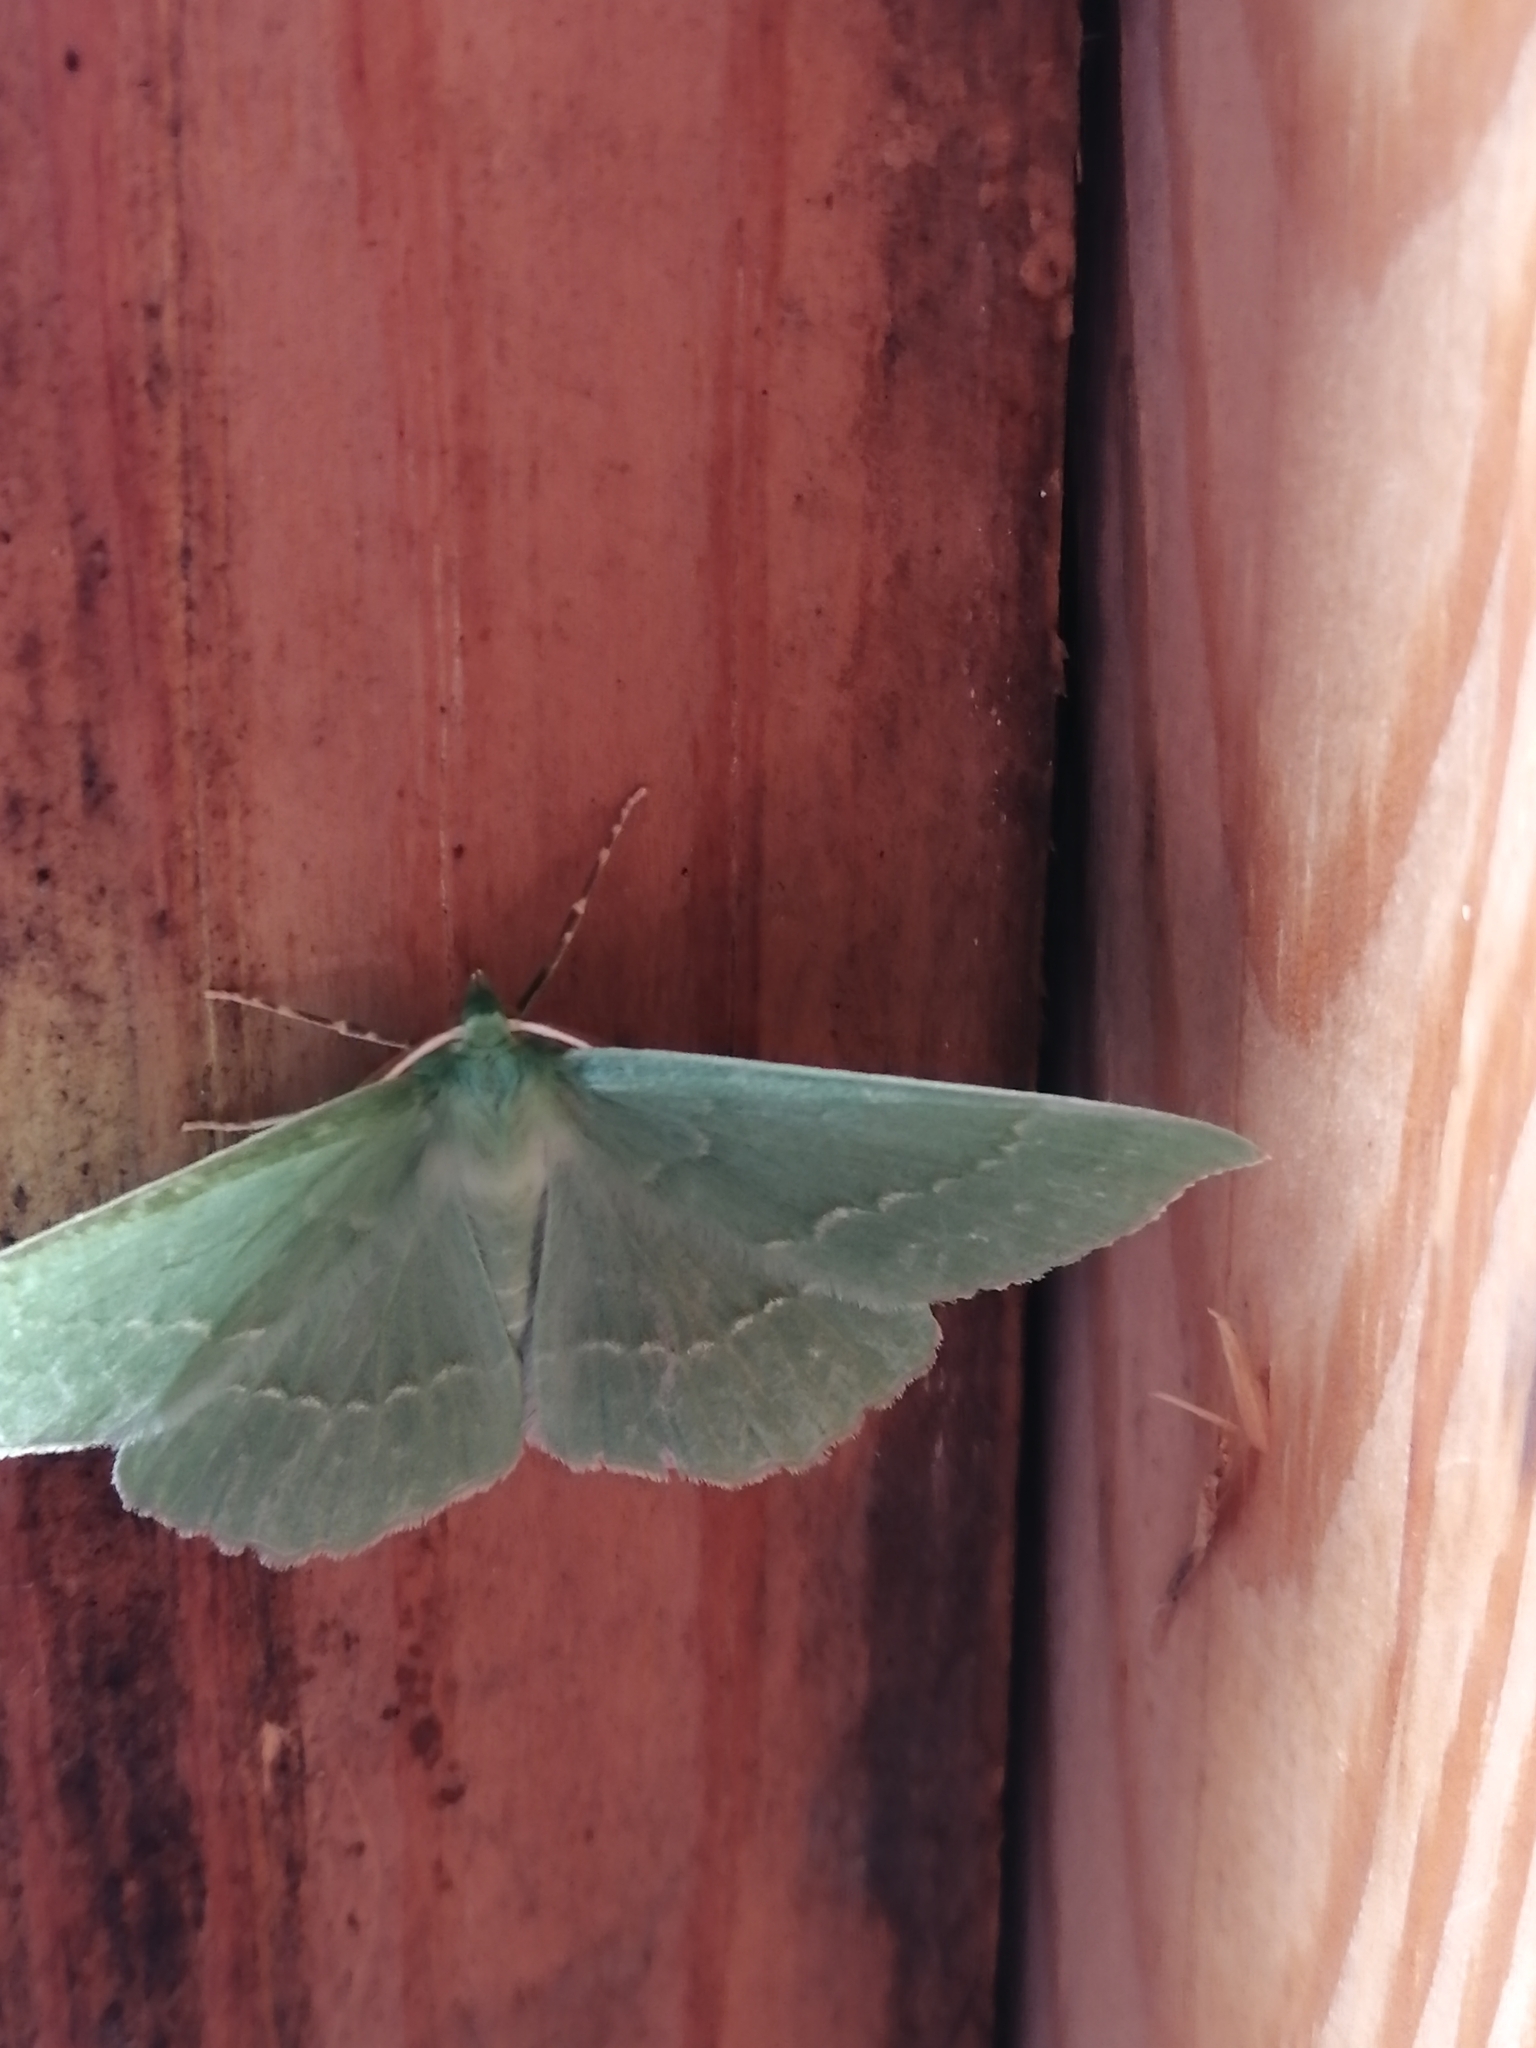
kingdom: Animalia
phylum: Arthropoda
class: Insecta
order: Lepidoptera
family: Geometridae
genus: Geometra
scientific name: Geometra papilionaria
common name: Large emerald
